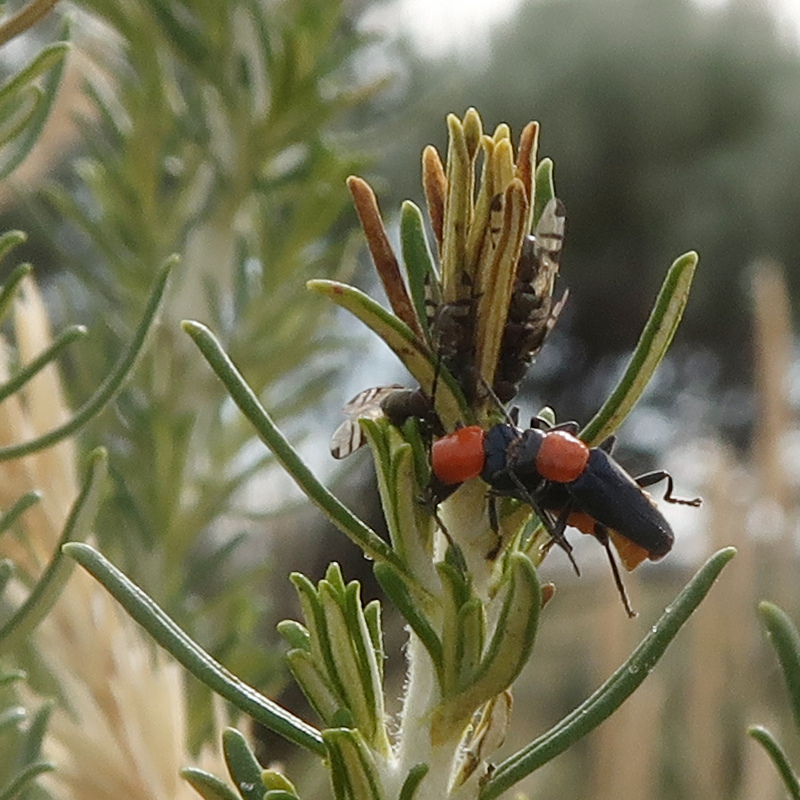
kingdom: Animalia
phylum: Arthropoda
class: Insecta
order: Coleoptera
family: Cantharidae
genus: Chauliognathus
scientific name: Chauliognathus
